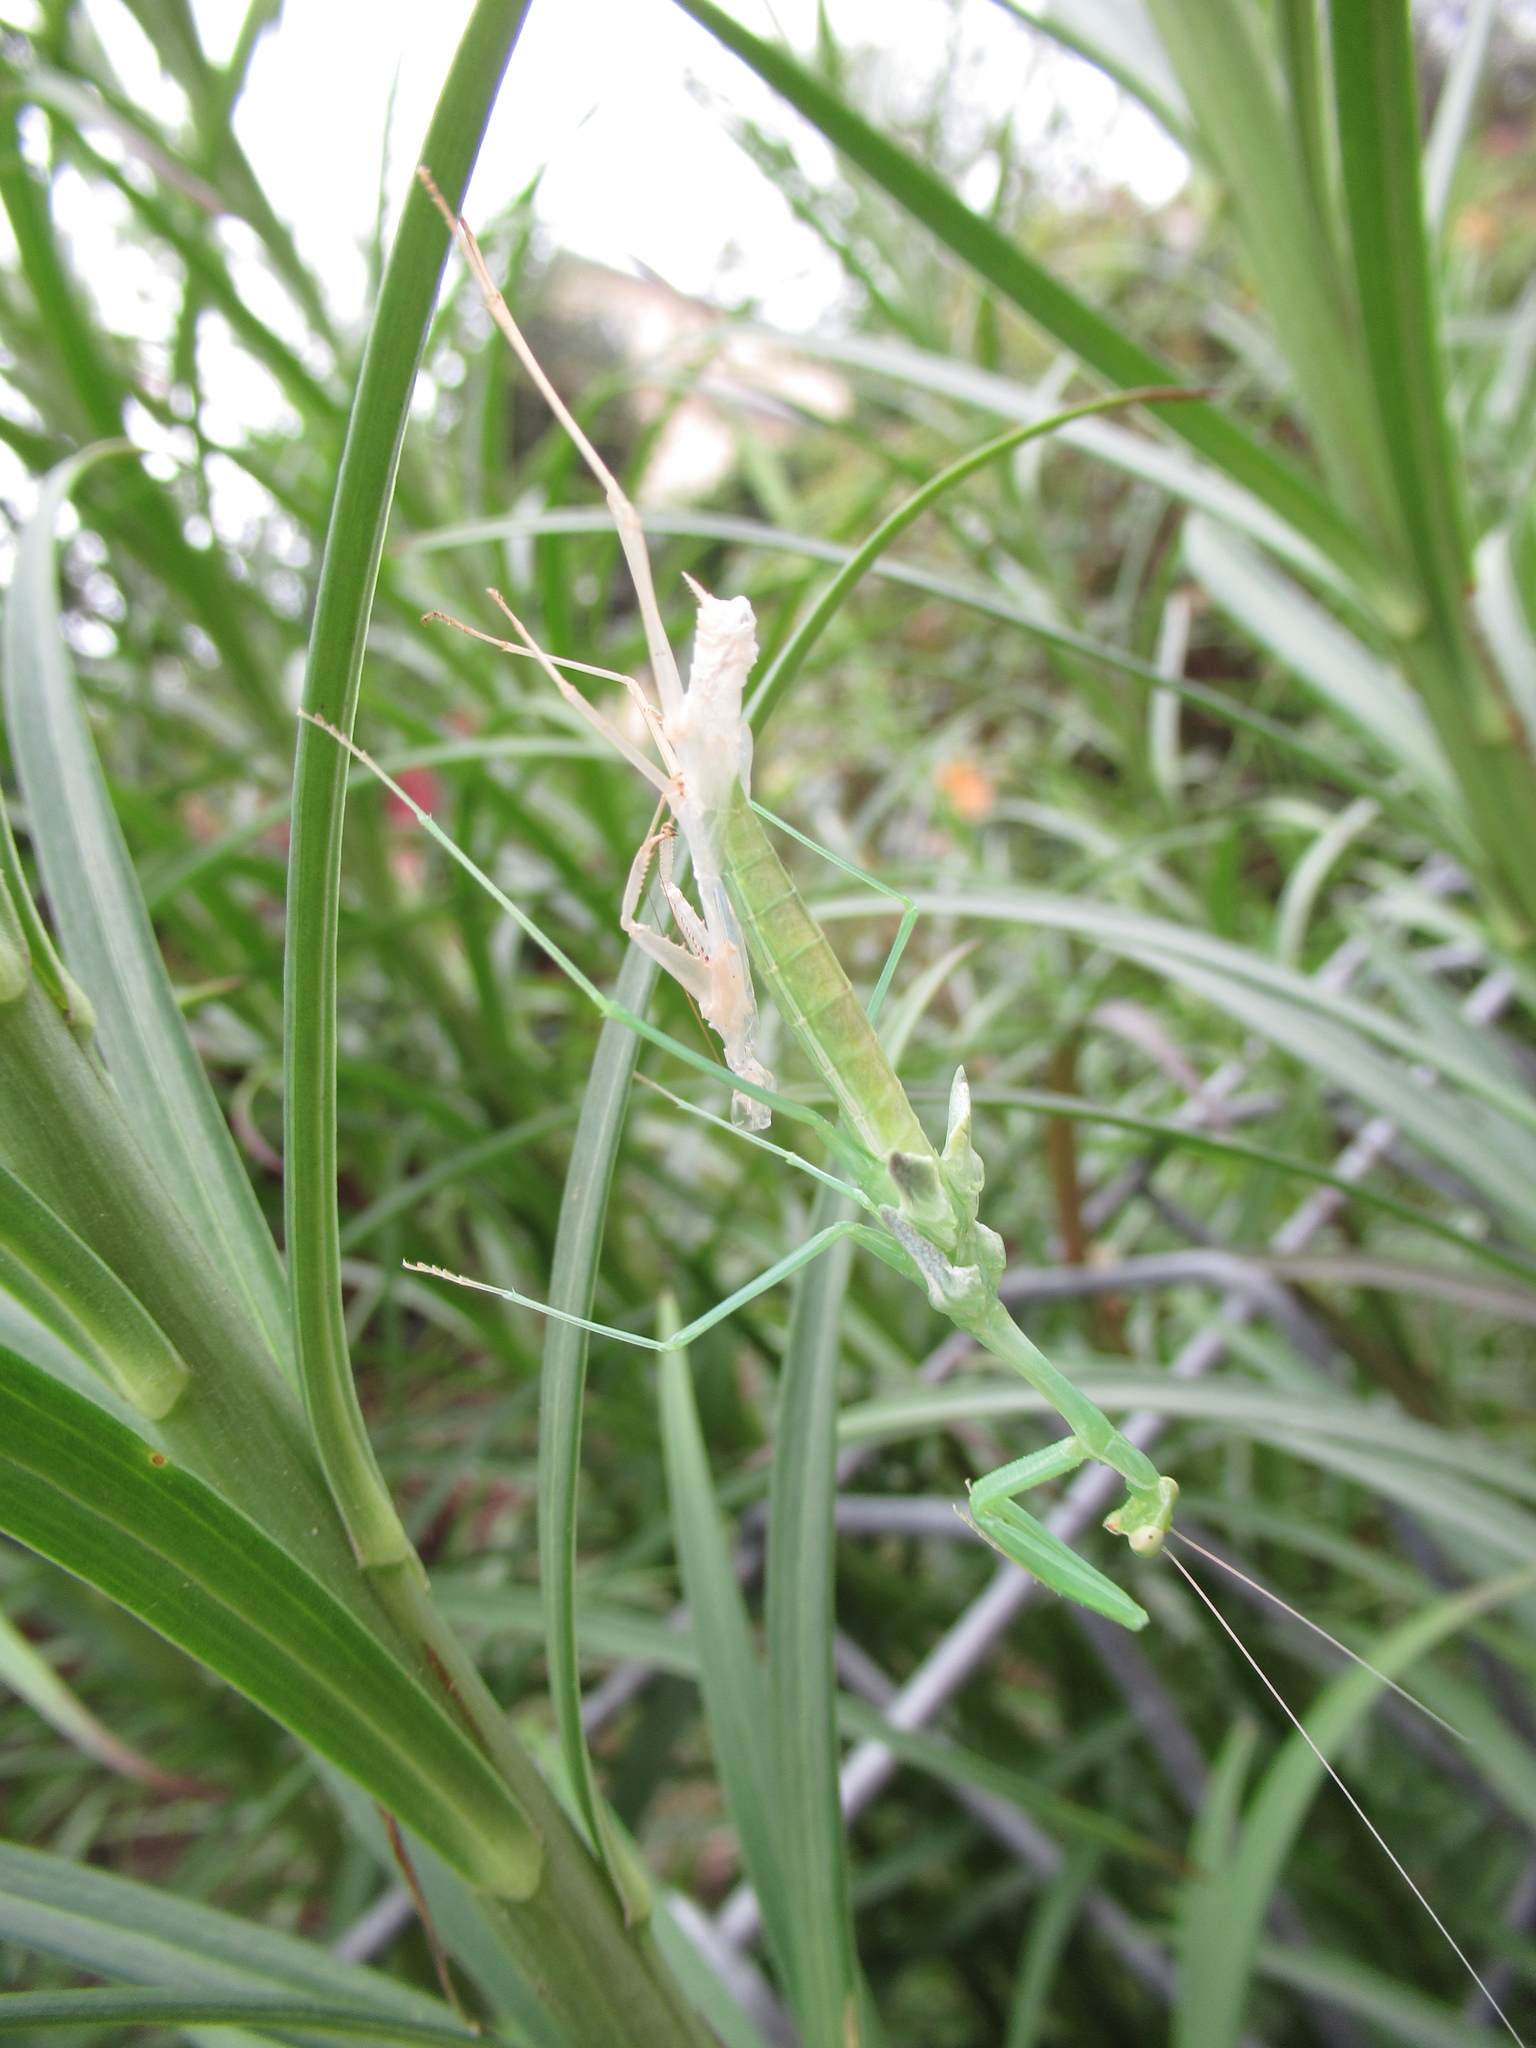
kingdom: Animalia
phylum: Arthropoda
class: Insecta
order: Mantodea
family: Miomantidae
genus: Miomantis
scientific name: Miomantis caffra
